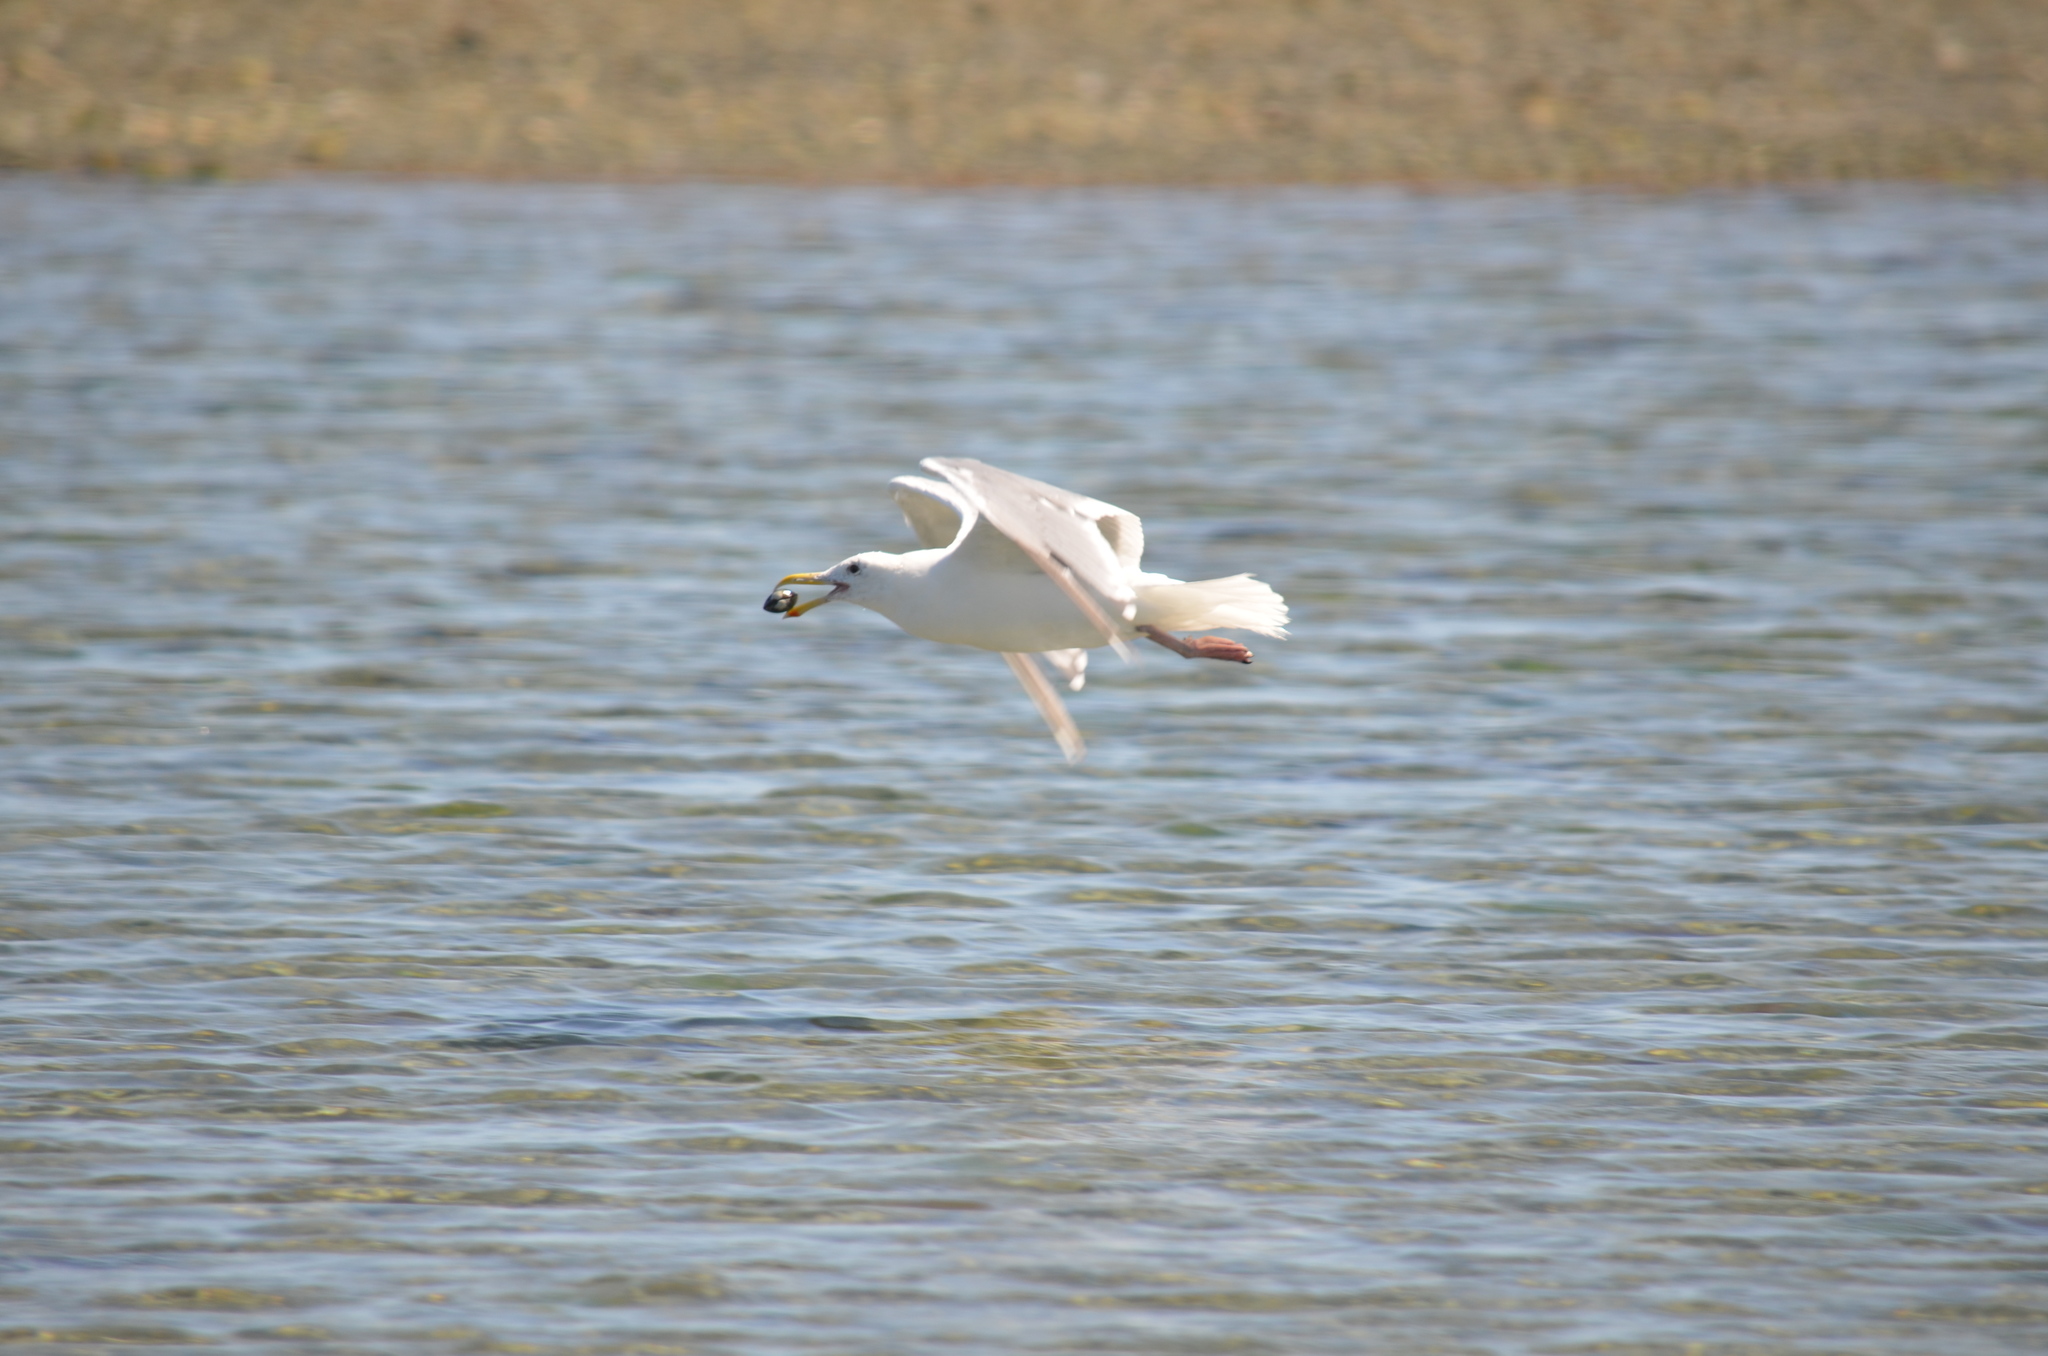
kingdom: Animalia
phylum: Chordata
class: Aves
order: Charadriiformes
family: Laridae
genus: Larus
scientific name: Larus glaucescens
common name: Glaucous-winged gull
